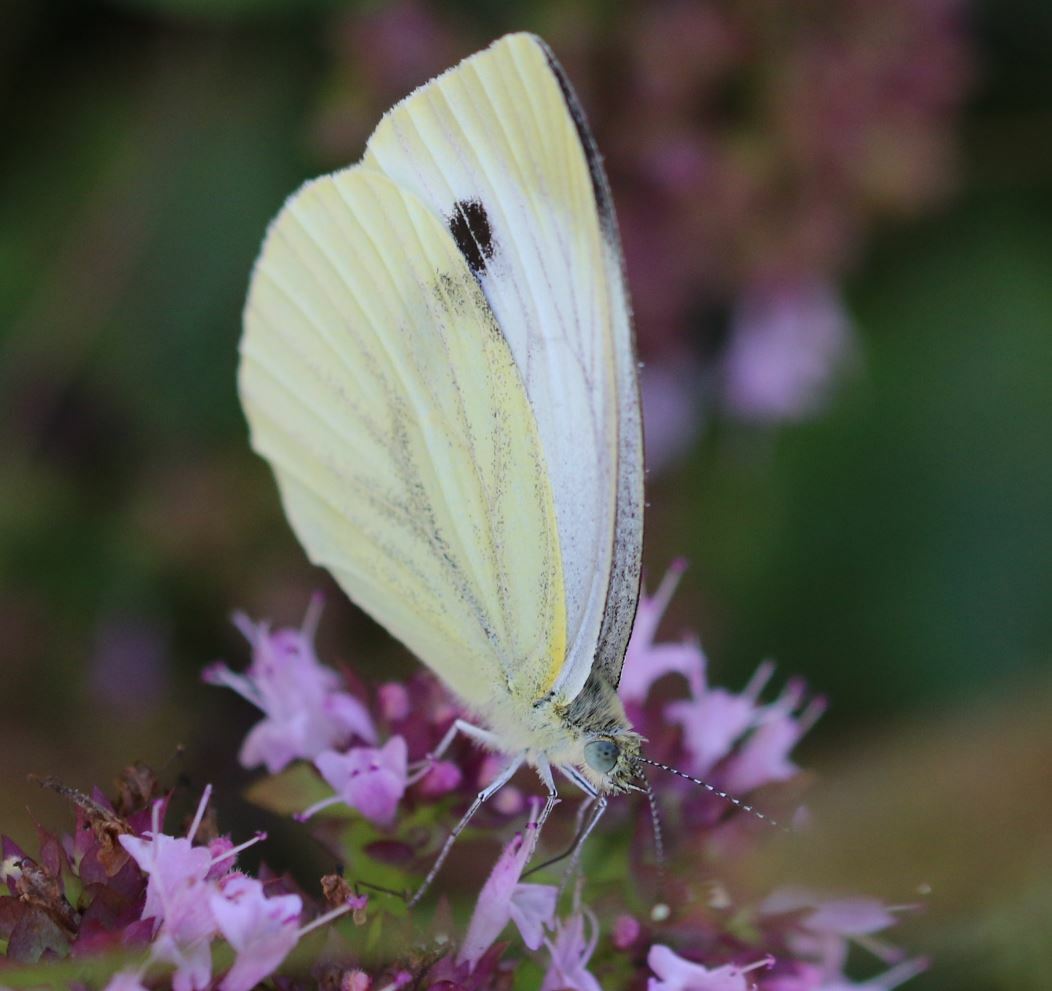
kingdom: Animalia
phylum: Arthropoda
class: Insecta
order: Lepidoptera
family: Pieridae
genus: Pieris
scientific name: Pieris napi
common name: Green-veined white
